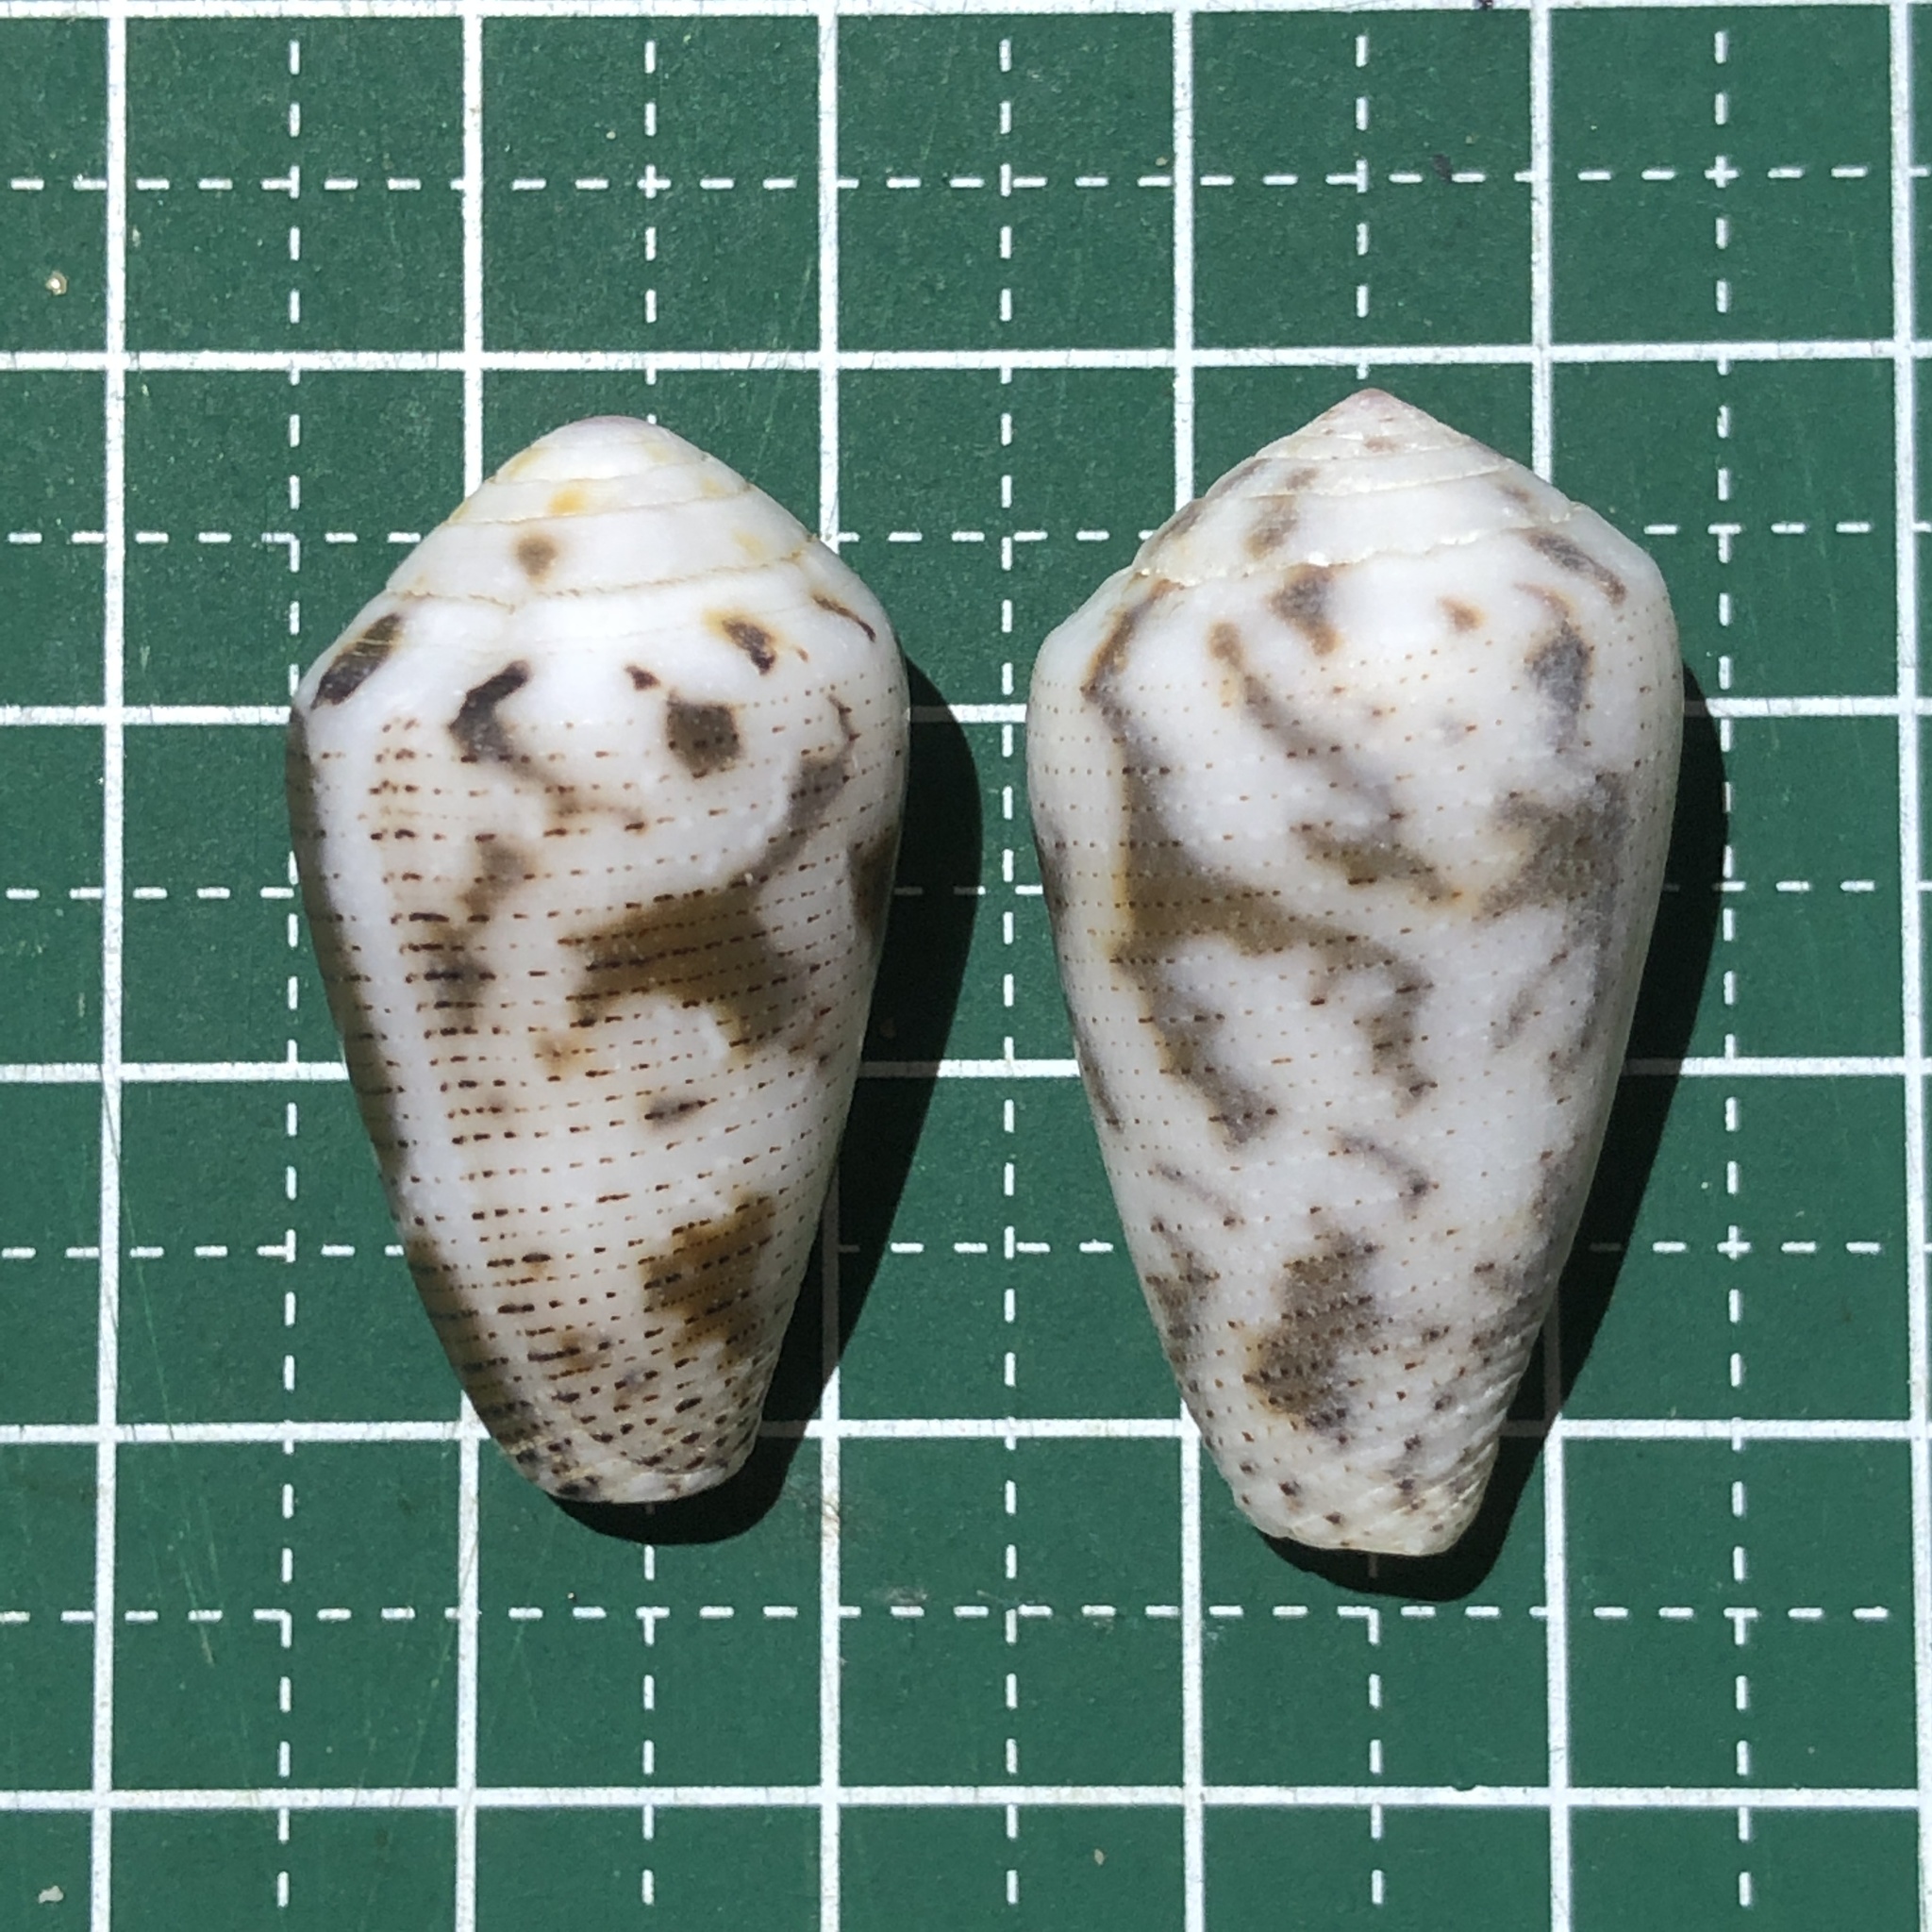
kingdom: Animalia
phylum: Mollusca
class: Gastropoda
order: Neogastropoda
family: Conidae
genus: Conus
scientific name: Conus striolatus
